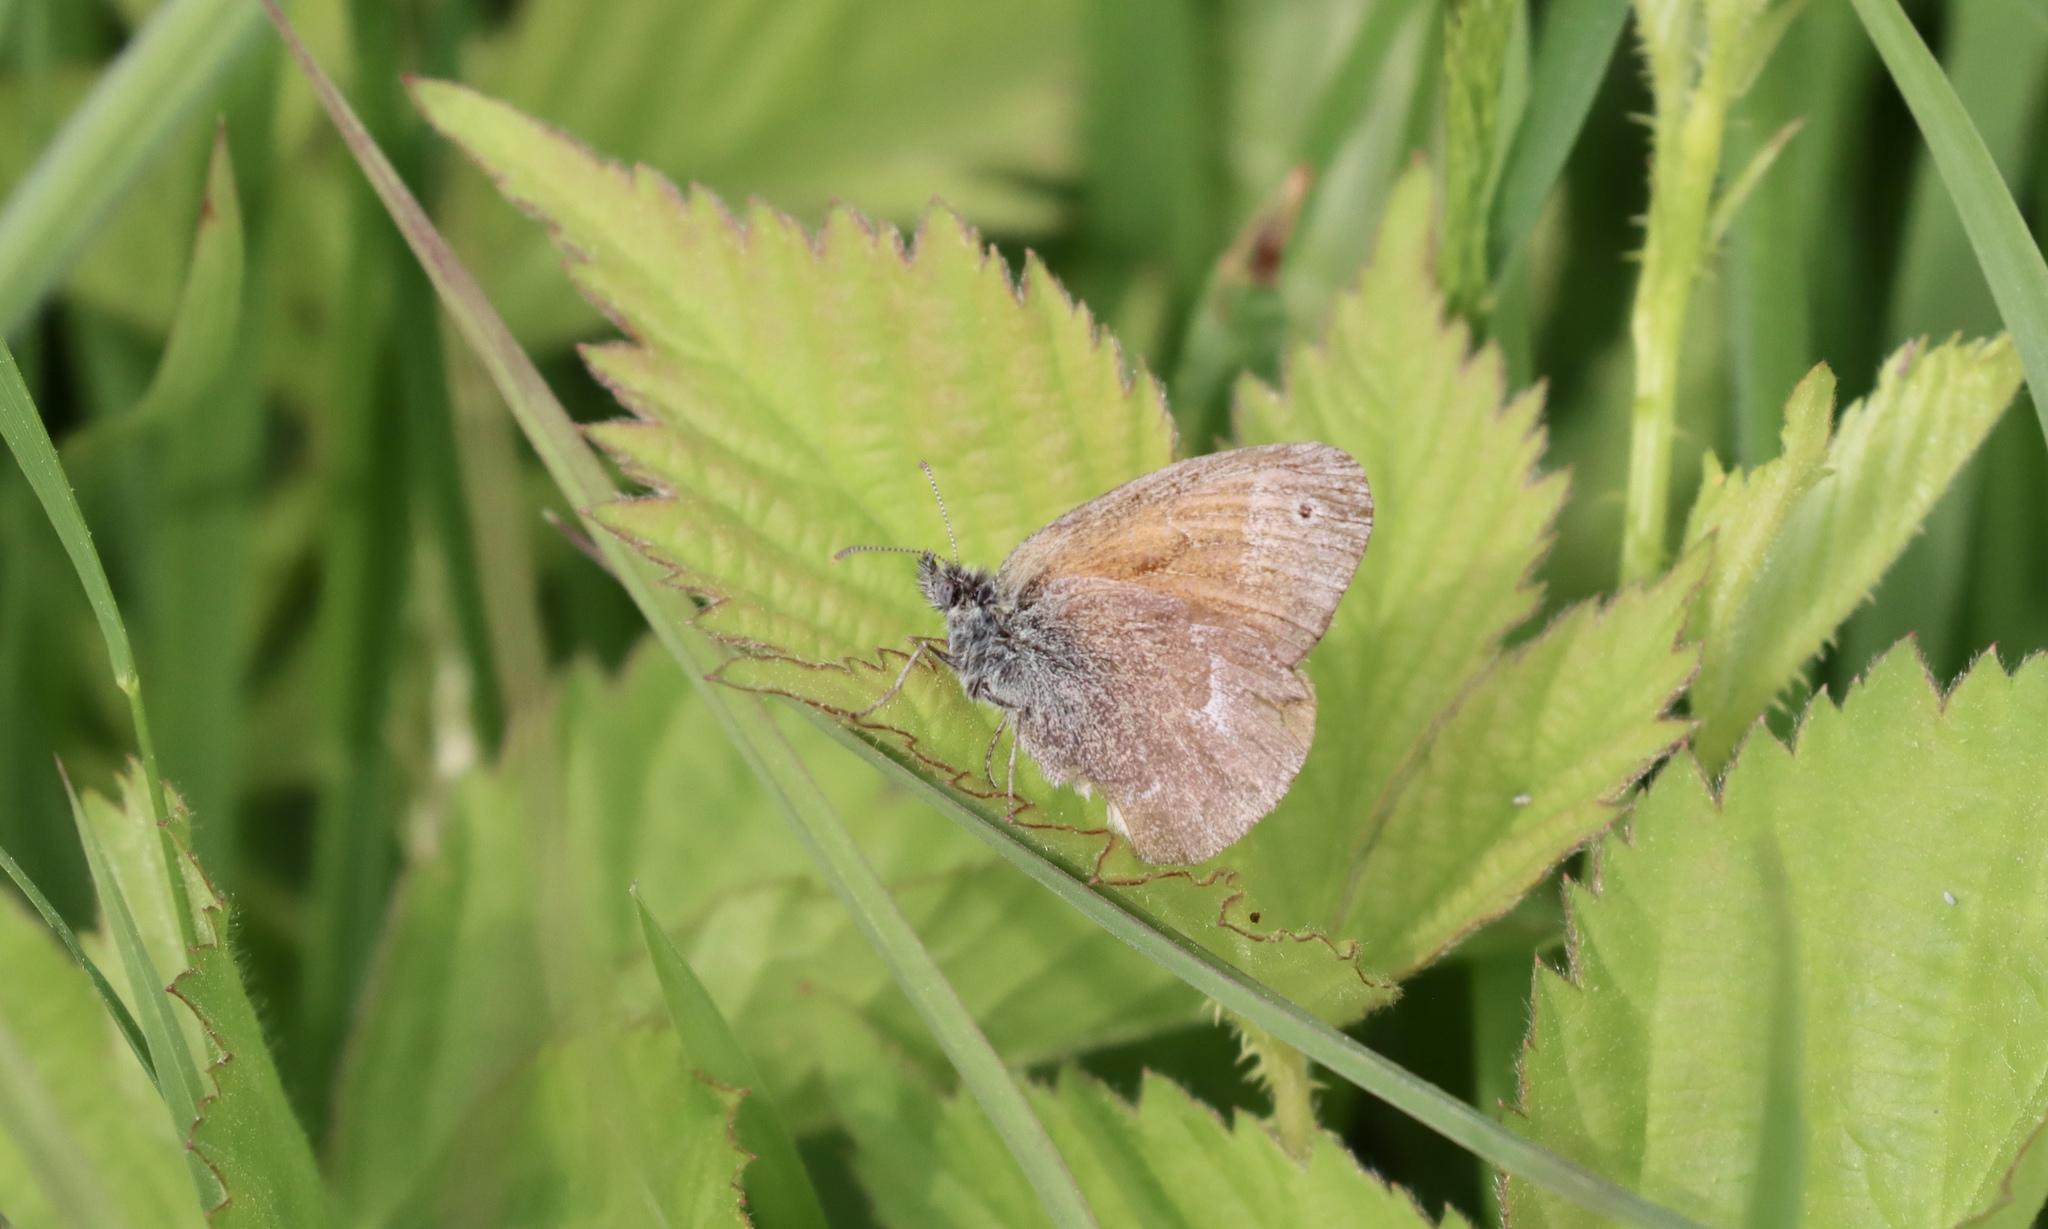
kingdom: Animalia
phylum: Arthropoda
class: Insecta
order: Lepidoptera
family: Nymphalidae
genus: Coenonympha
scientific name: Coenonympha california
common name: Common ringlet
